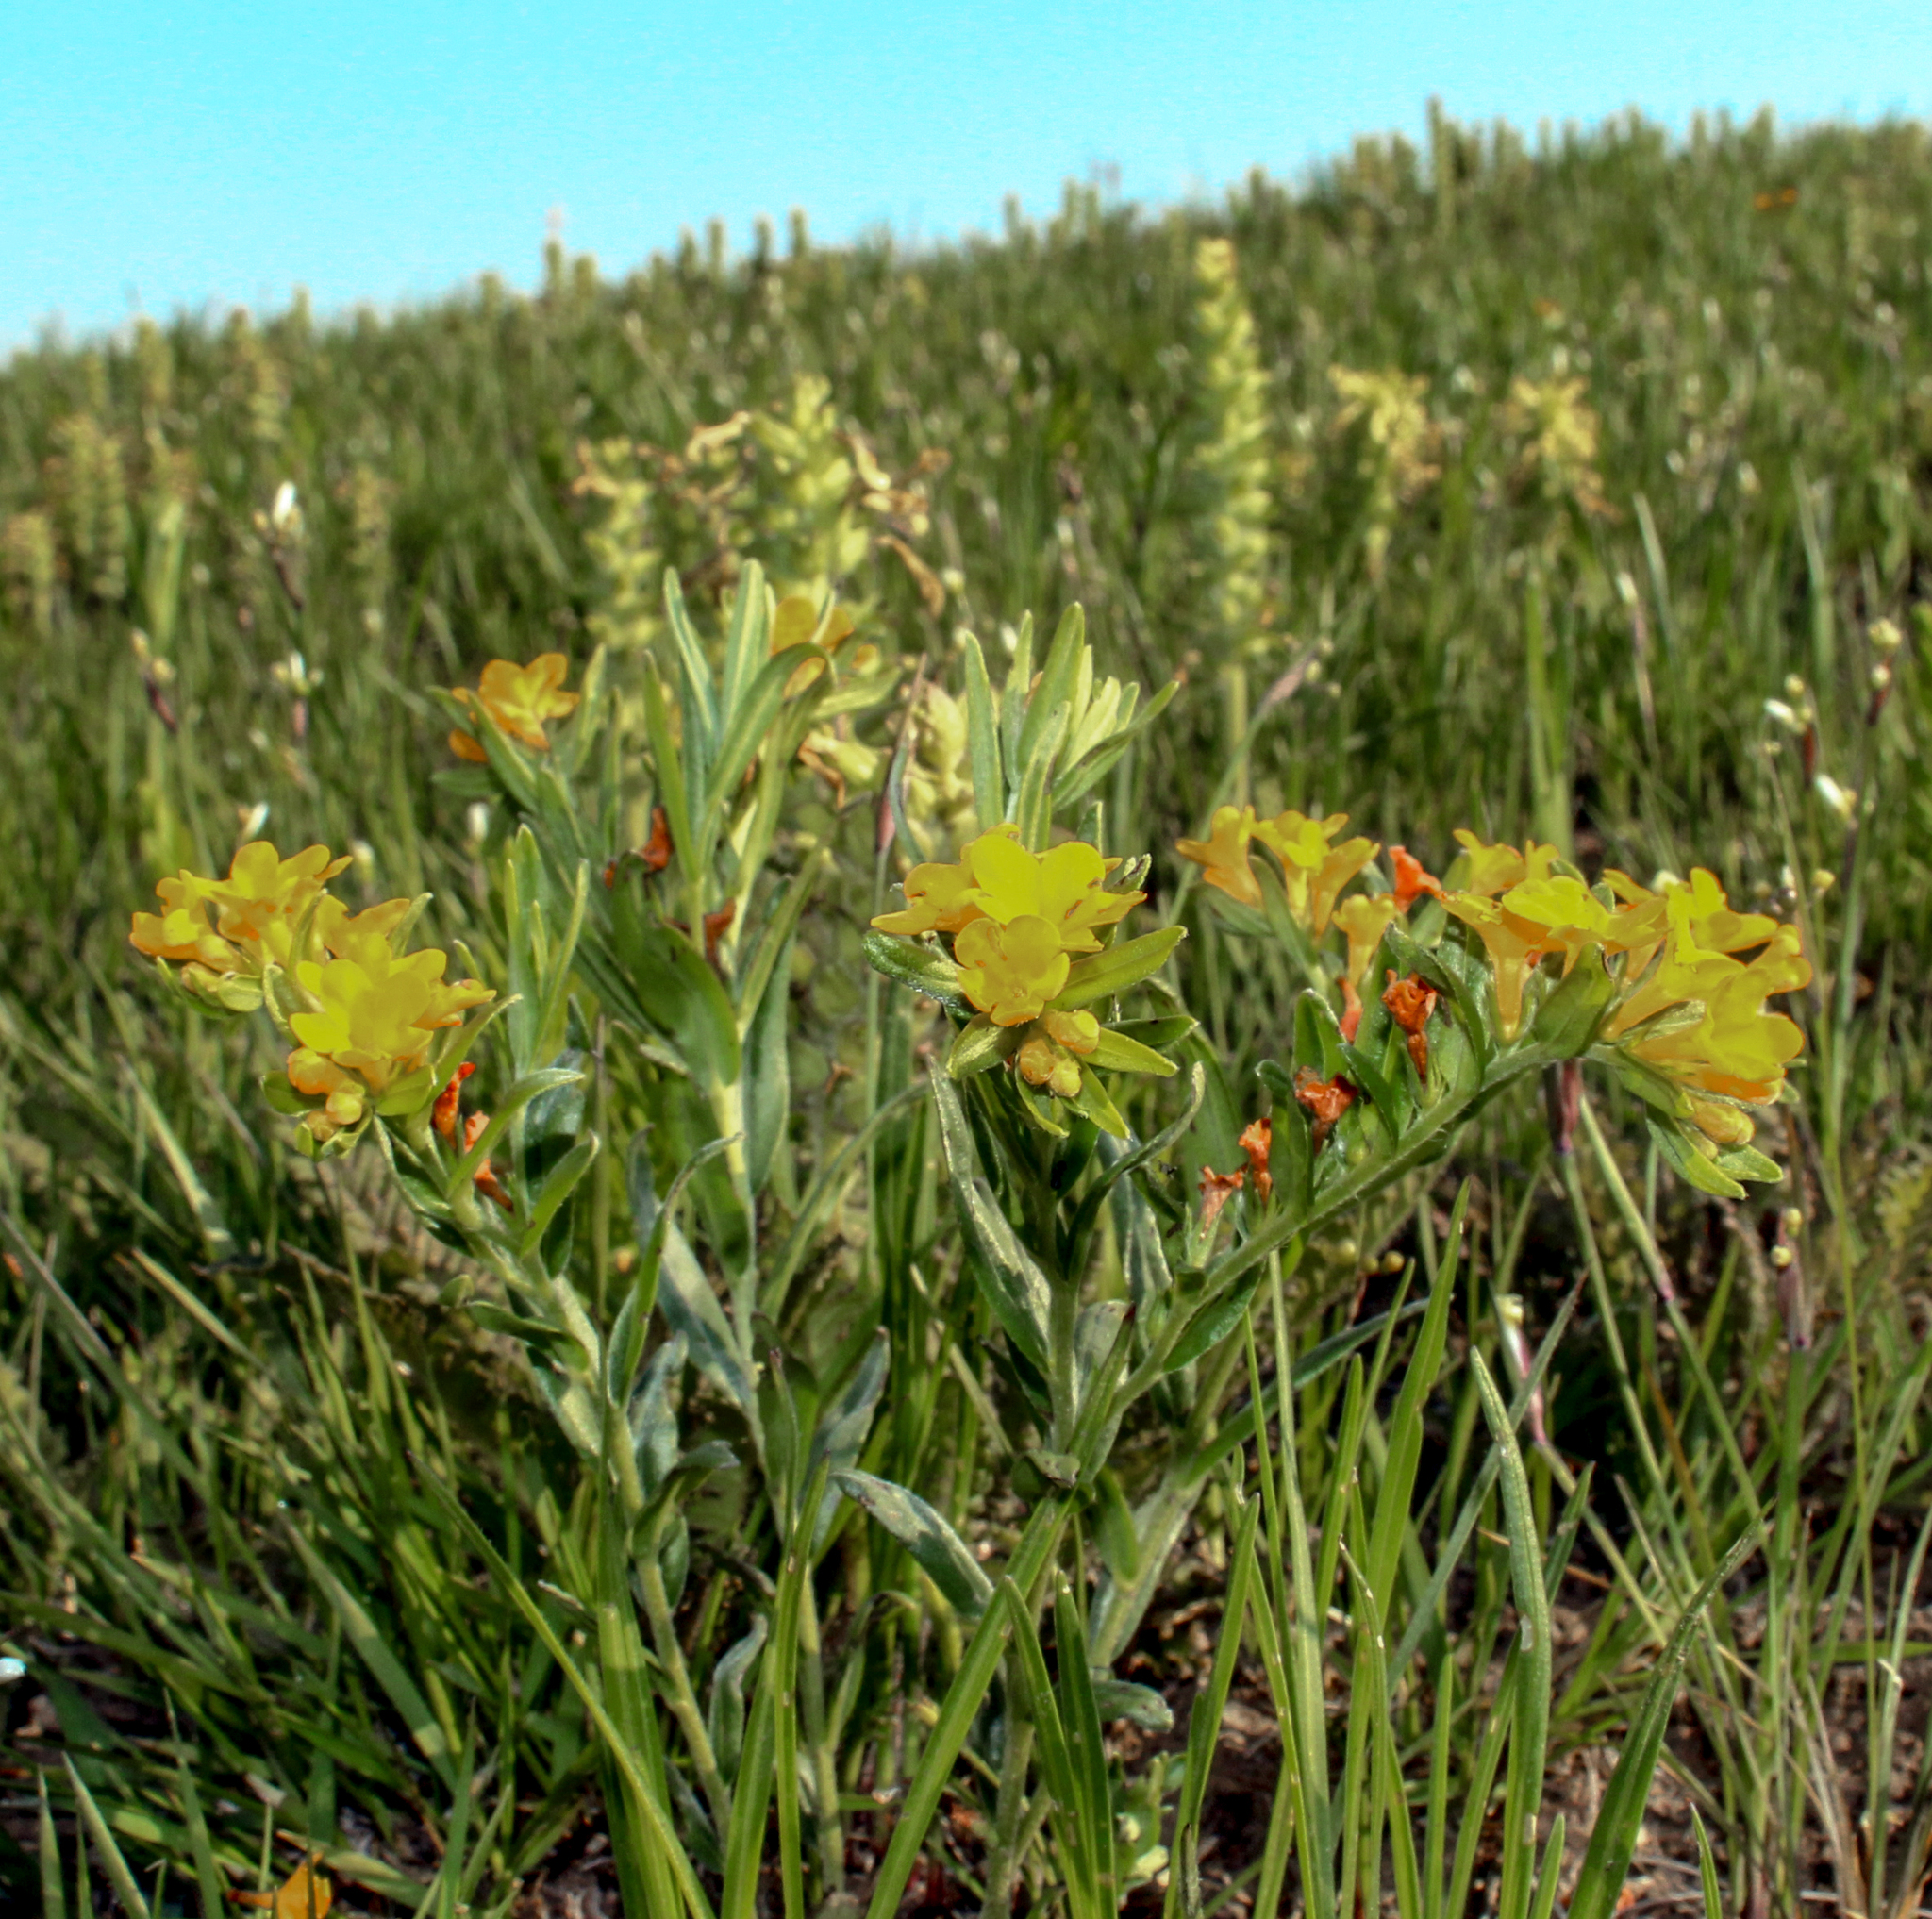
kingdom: Plantae
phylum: Tracheophyta
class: Magnoliopsida
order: Boraginales
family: Boraginaceae
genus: Lithospermum
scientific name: Lithospermum canescens
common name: Hoary puccoon
